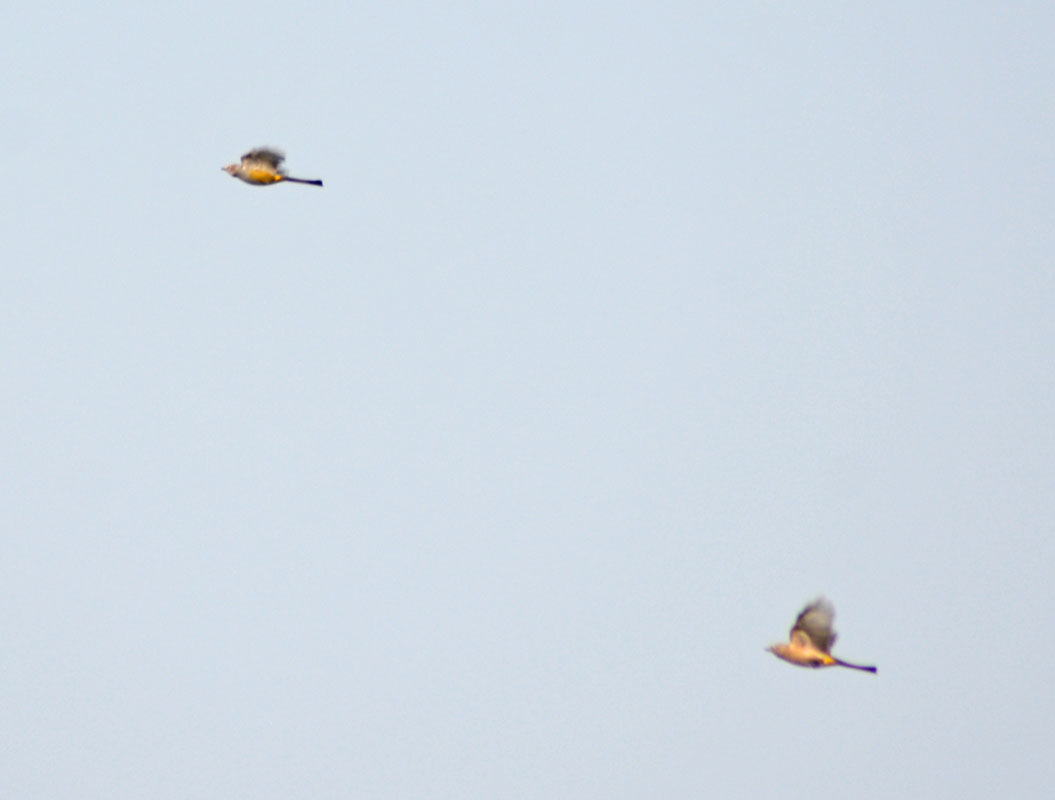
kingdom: Animalia
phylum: Chordata
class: Aves
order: Passeriformes
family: Ptilogonatidae
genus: Ptilogonys
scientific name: Ptilogonys cinereus
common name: Gray silky-flycatcher
